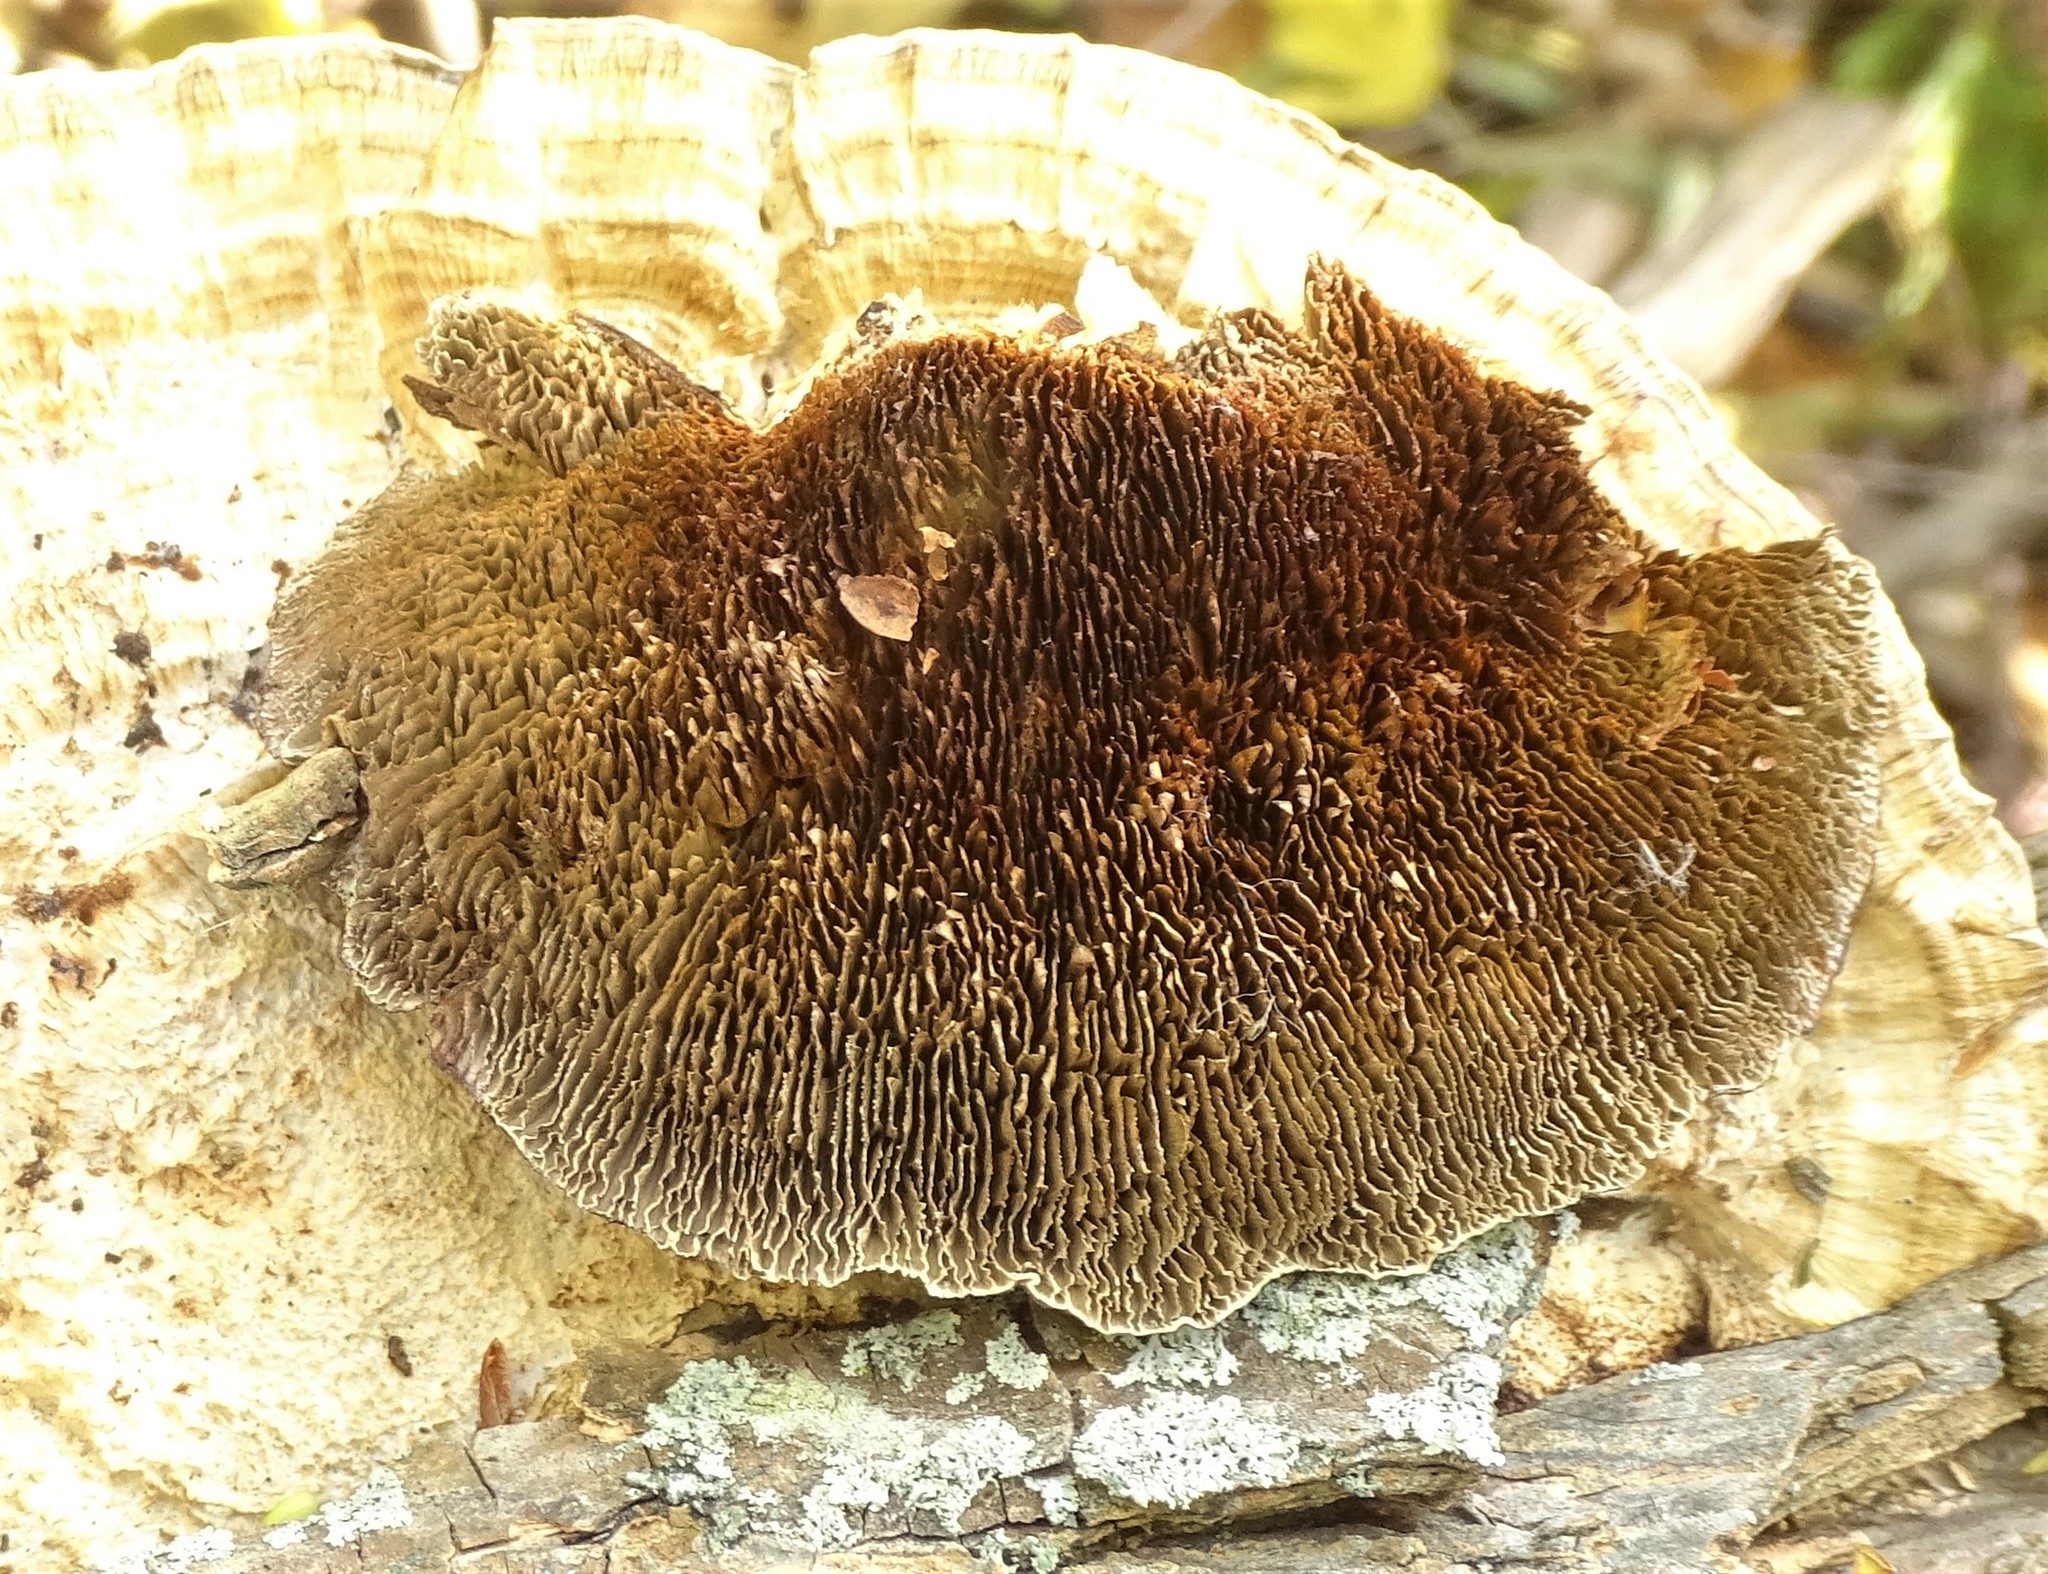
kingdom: Fungi
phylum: Basidiomycota
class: Agaricomycetes
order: Polyporales
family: Polyporaceae
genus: Daedaleopsis
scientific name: Daedaleopsis confragosa
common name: Blushing bracket
